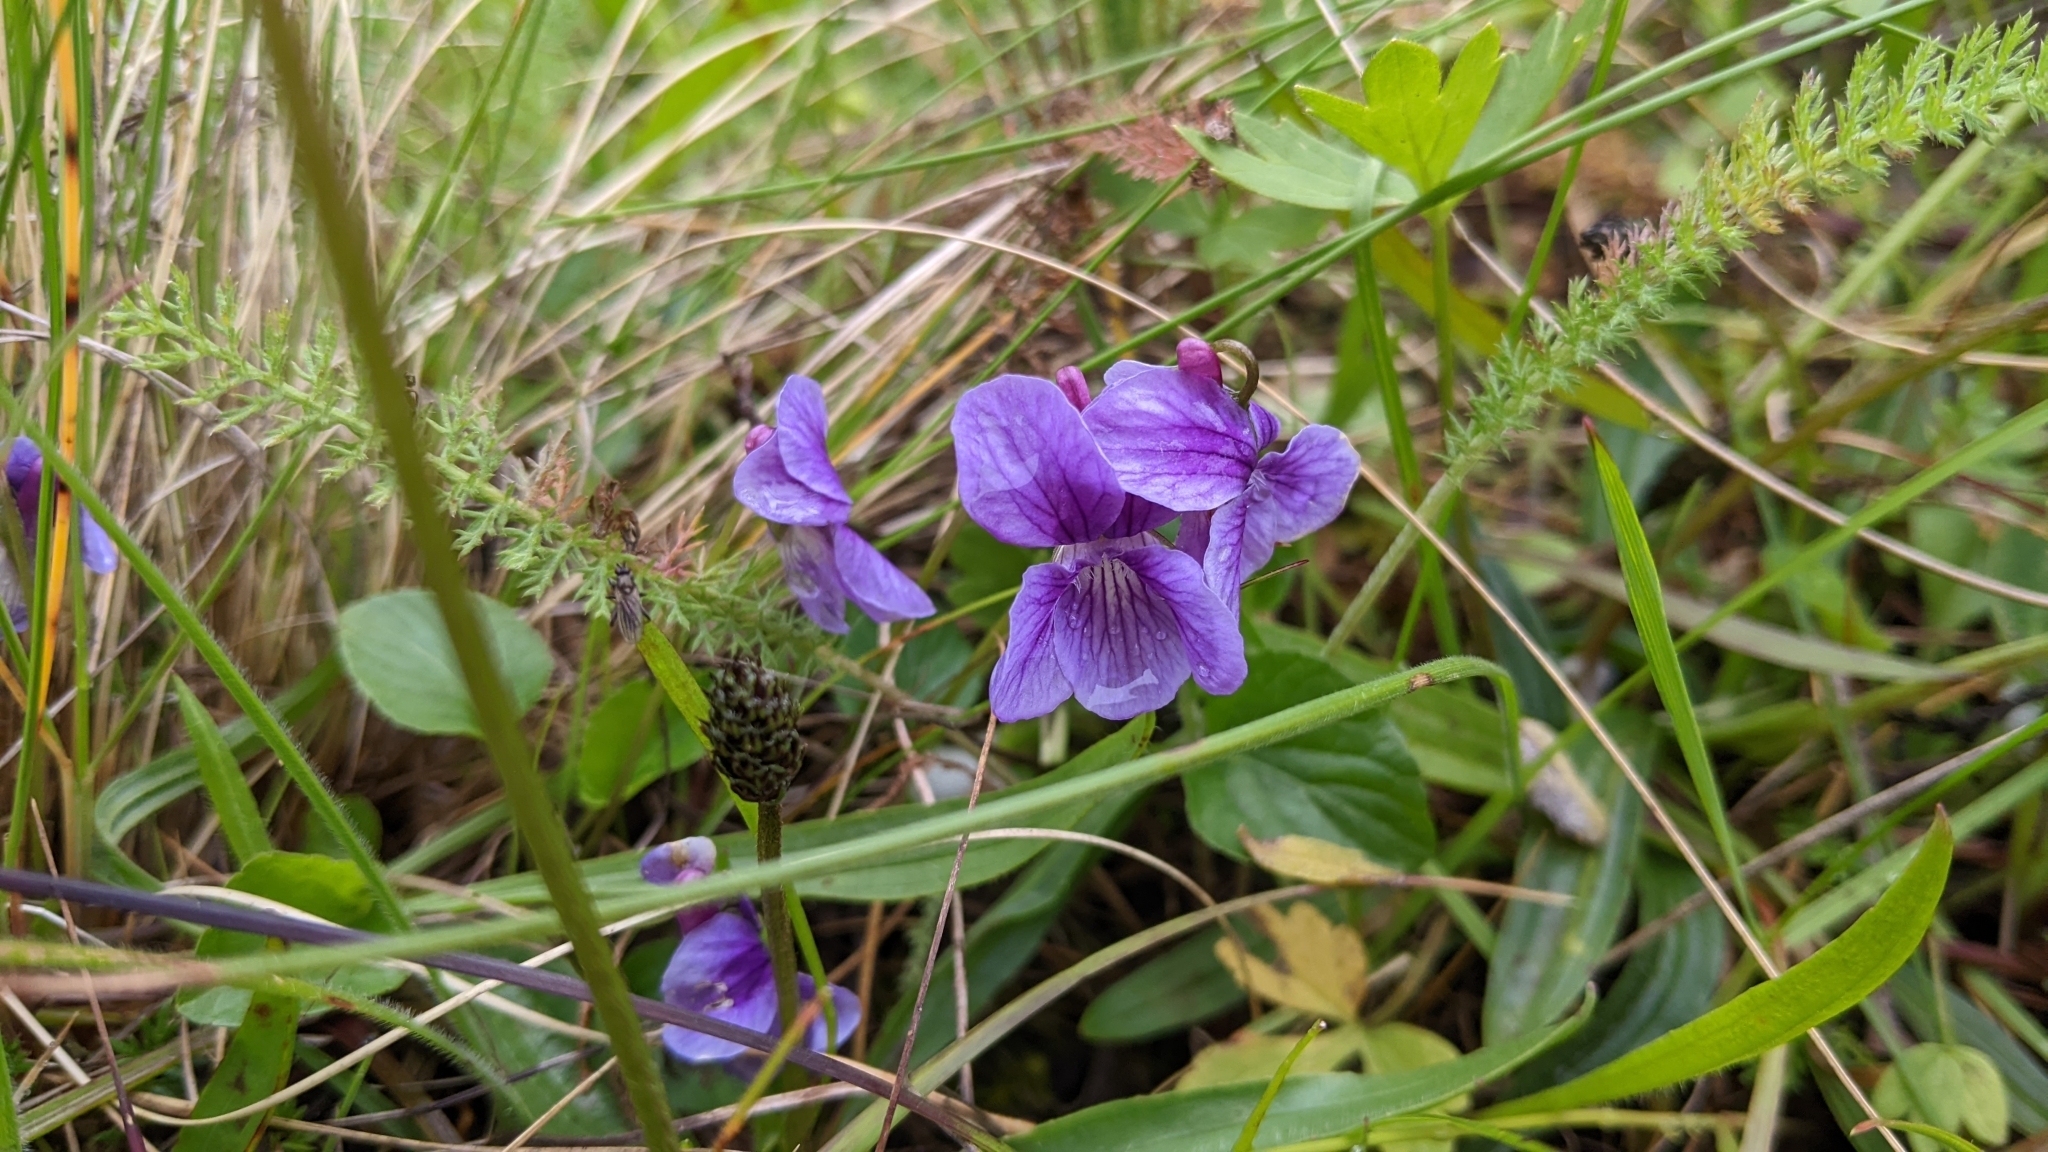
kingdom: Plantae
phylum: Tracheophyta
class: Magnoliopsida
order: Malpighiales
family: Violaceae
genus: Viola
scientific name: Viola adunca
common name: Sand violet
